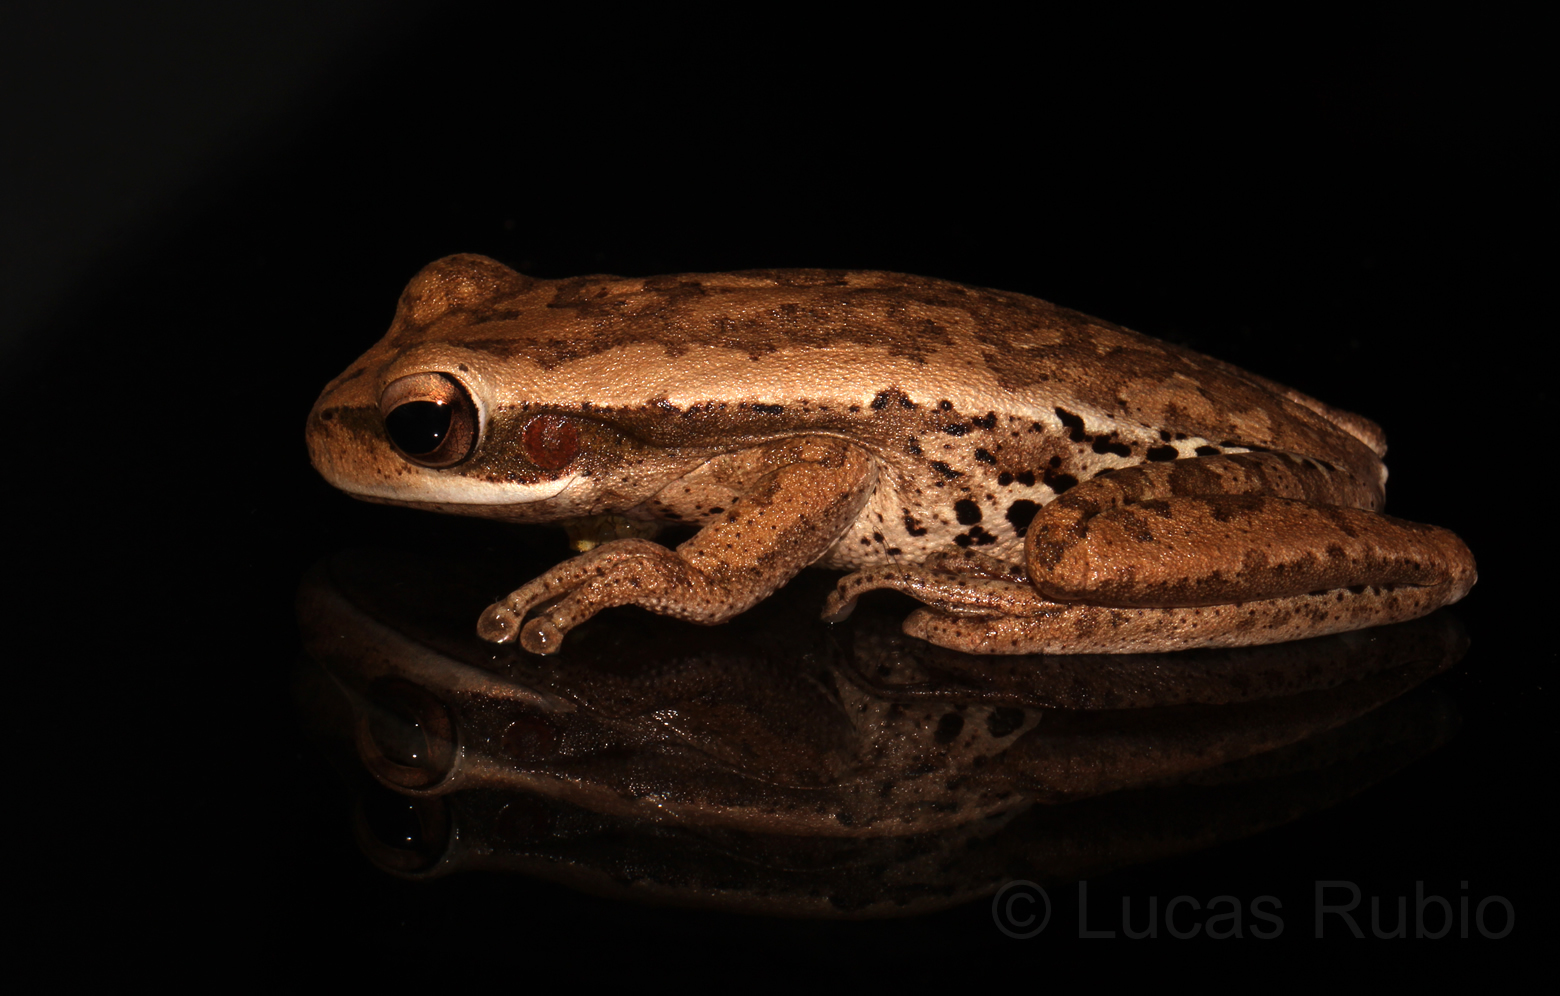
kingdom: Animalia
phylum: Chordata
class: Amphibia
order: Anura
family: Hylidae
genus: Boana
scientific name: Boana pulchella
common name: Montevideo treefrog
